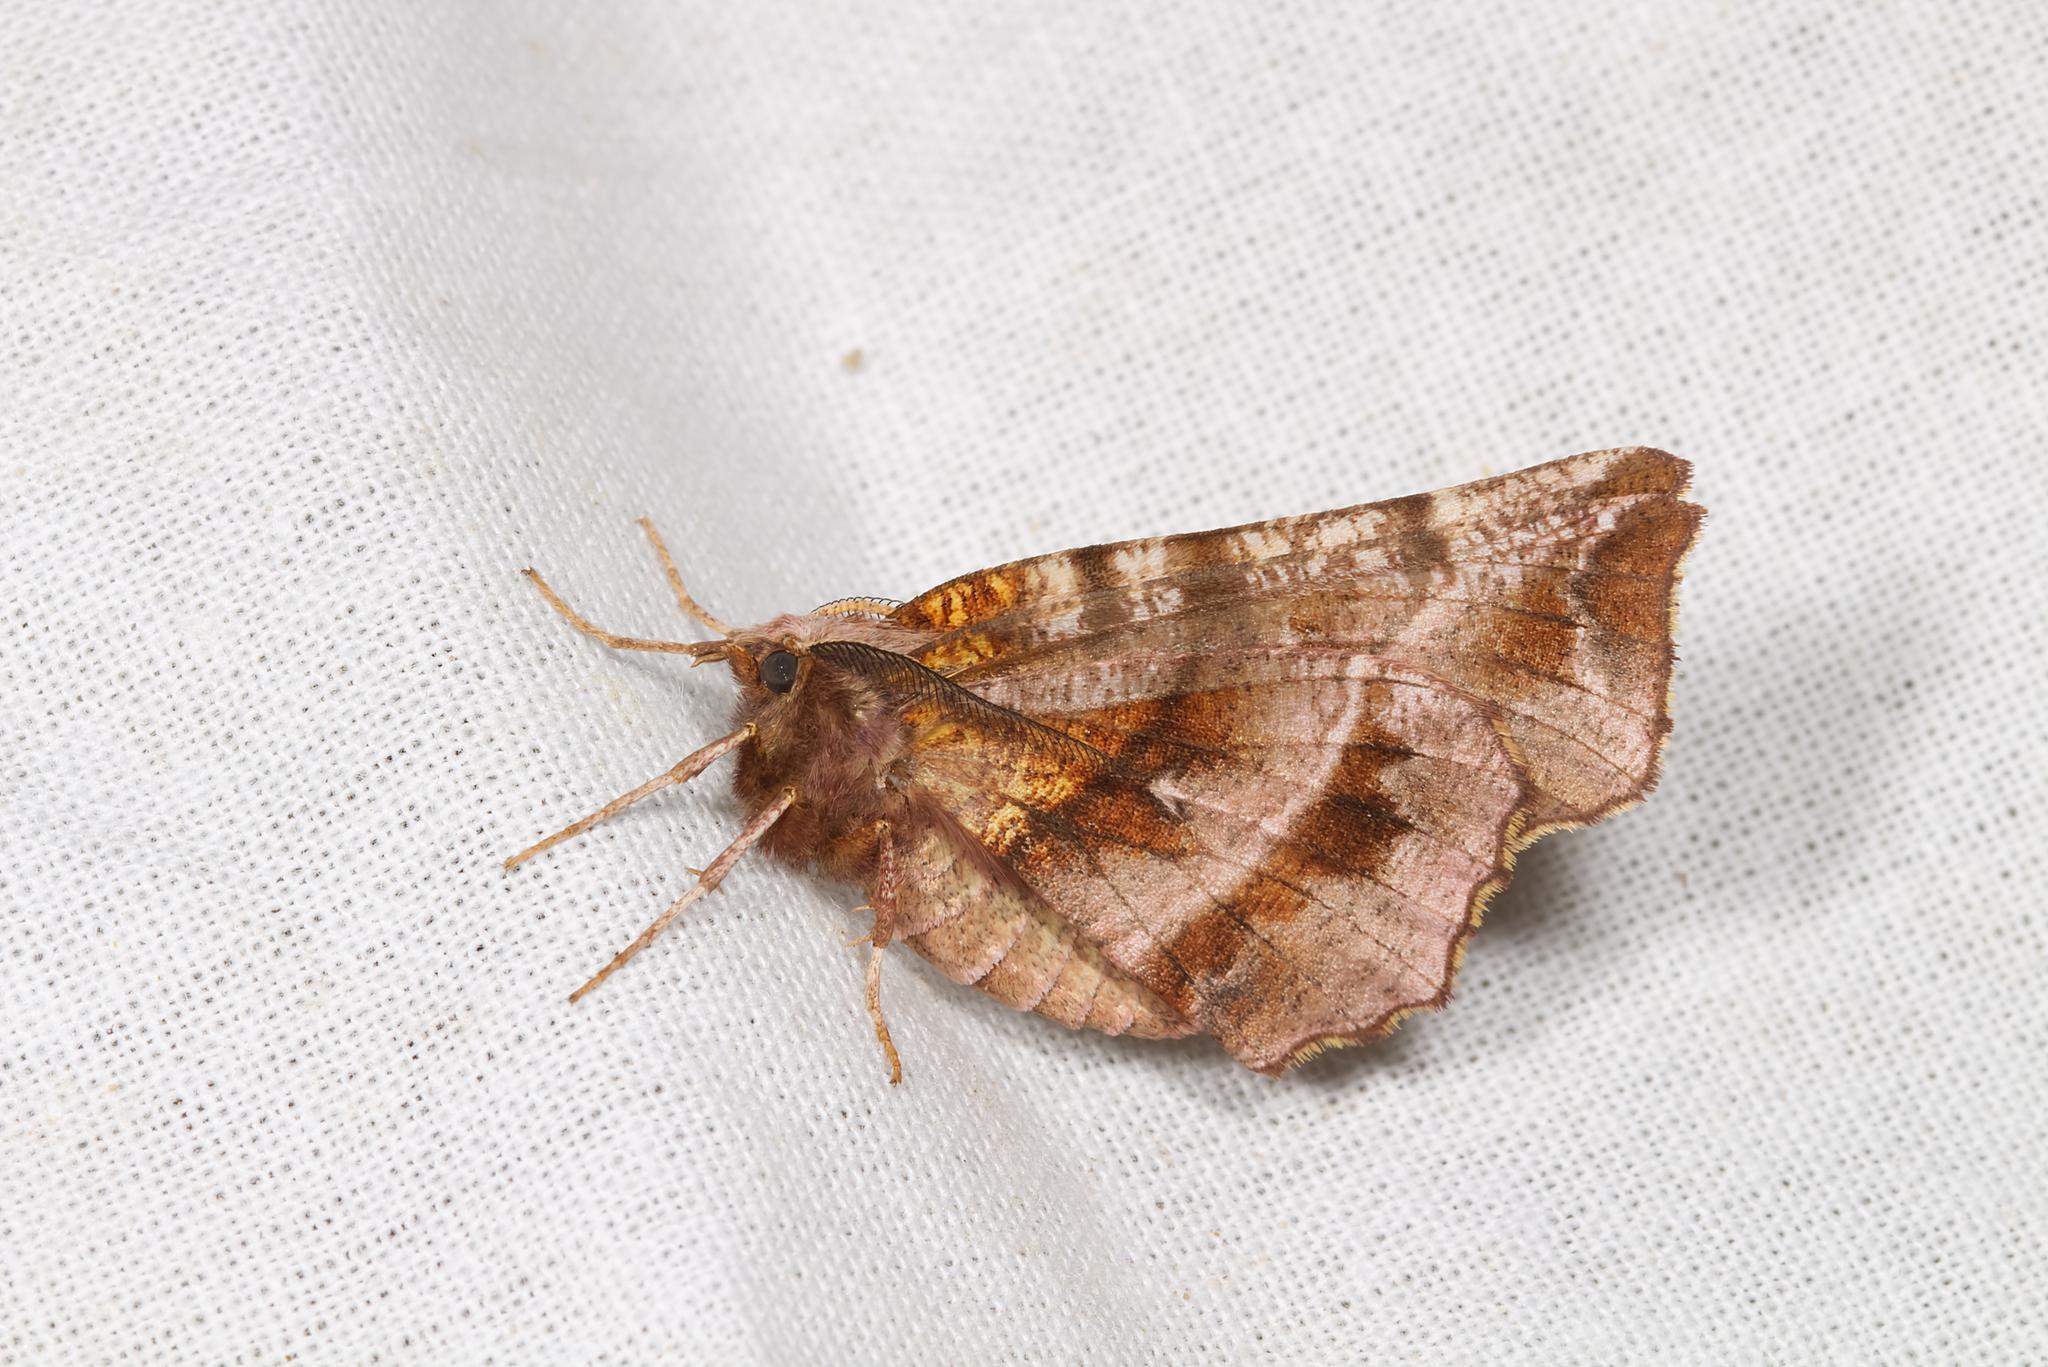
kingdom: Animalia
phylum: Arthropoda
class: Insecta
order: Lepidoptera
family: Geometridae
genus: Selenia
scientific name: Selenia dentaria
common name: Early thorn
